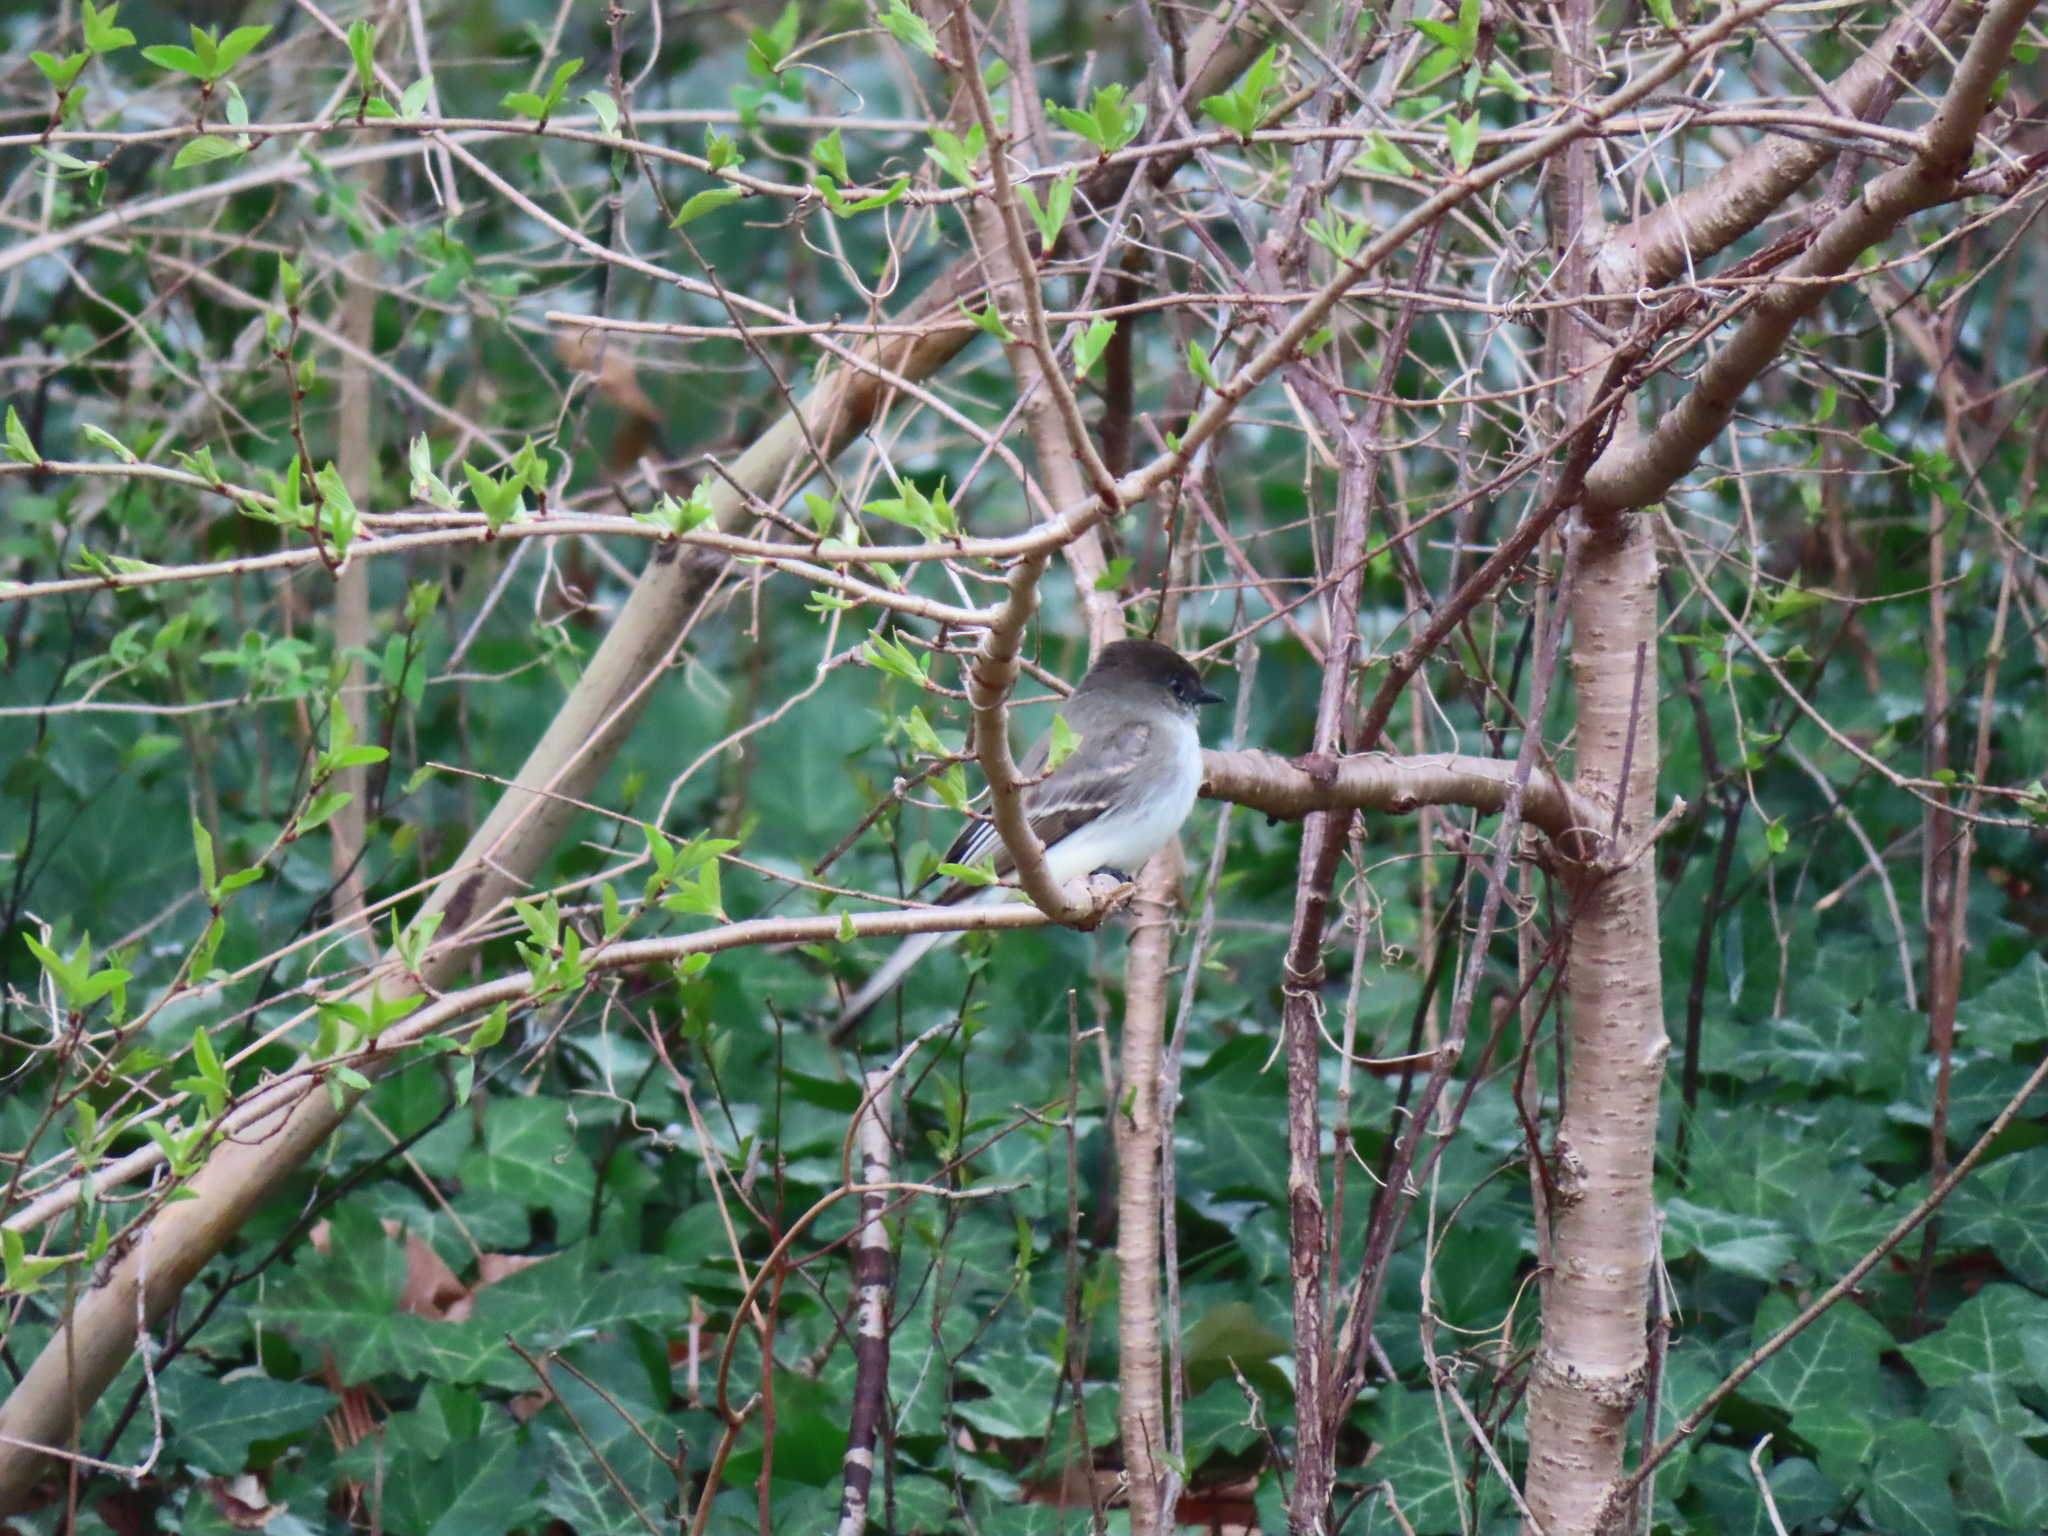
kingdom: Animalia
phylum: Chordata
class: Aves
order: Passeriformes
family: Tyrannidae
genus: Sayornis
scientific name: Sayornis phoebe
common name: Eastern phoebe
